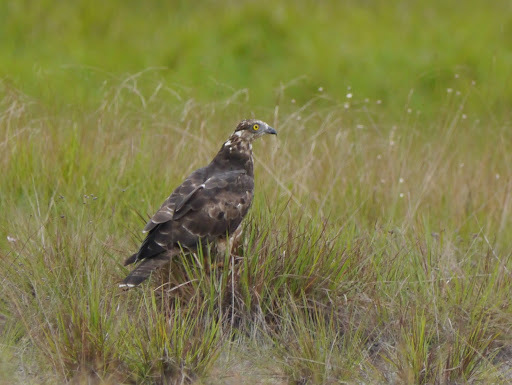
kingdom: Animalia
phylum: Chordata
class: Aves
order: Accipitriformes
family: Accipitridae
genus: Pernis
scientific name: Pernis apivorus
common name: European honey buzzard
